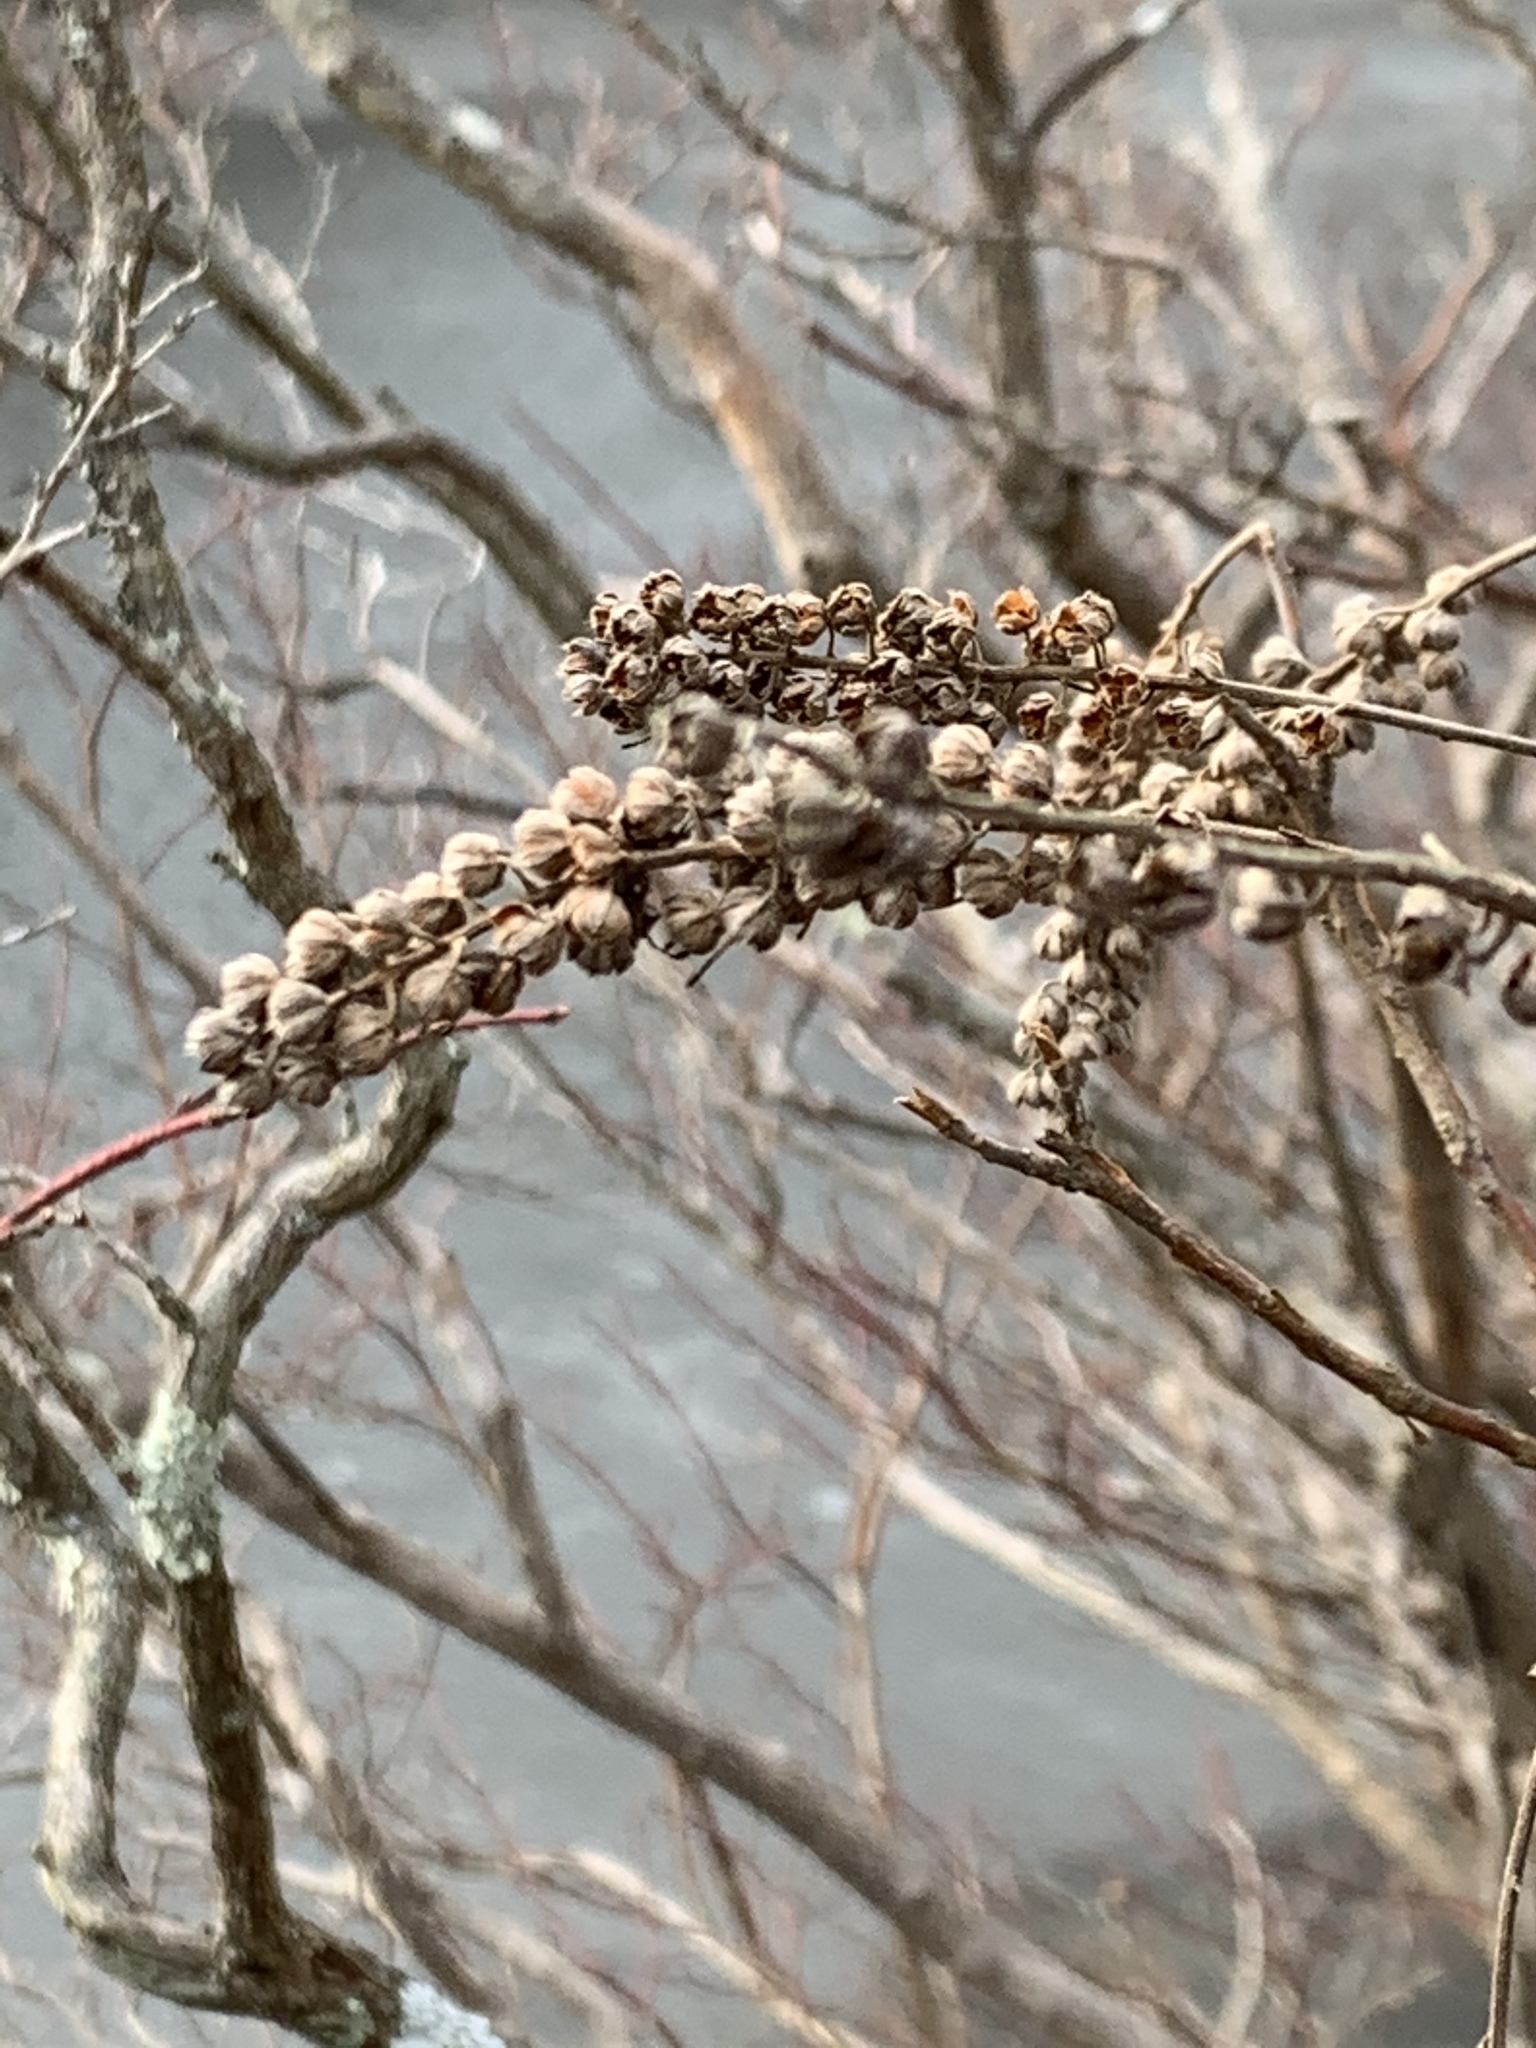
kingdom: Plantae
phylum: Tracheophyta
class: Magnoliopsida
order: Ericales
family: Clethraceae
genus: Clethra
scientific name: Clethra alnifolia
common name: Sweet pepperbush
